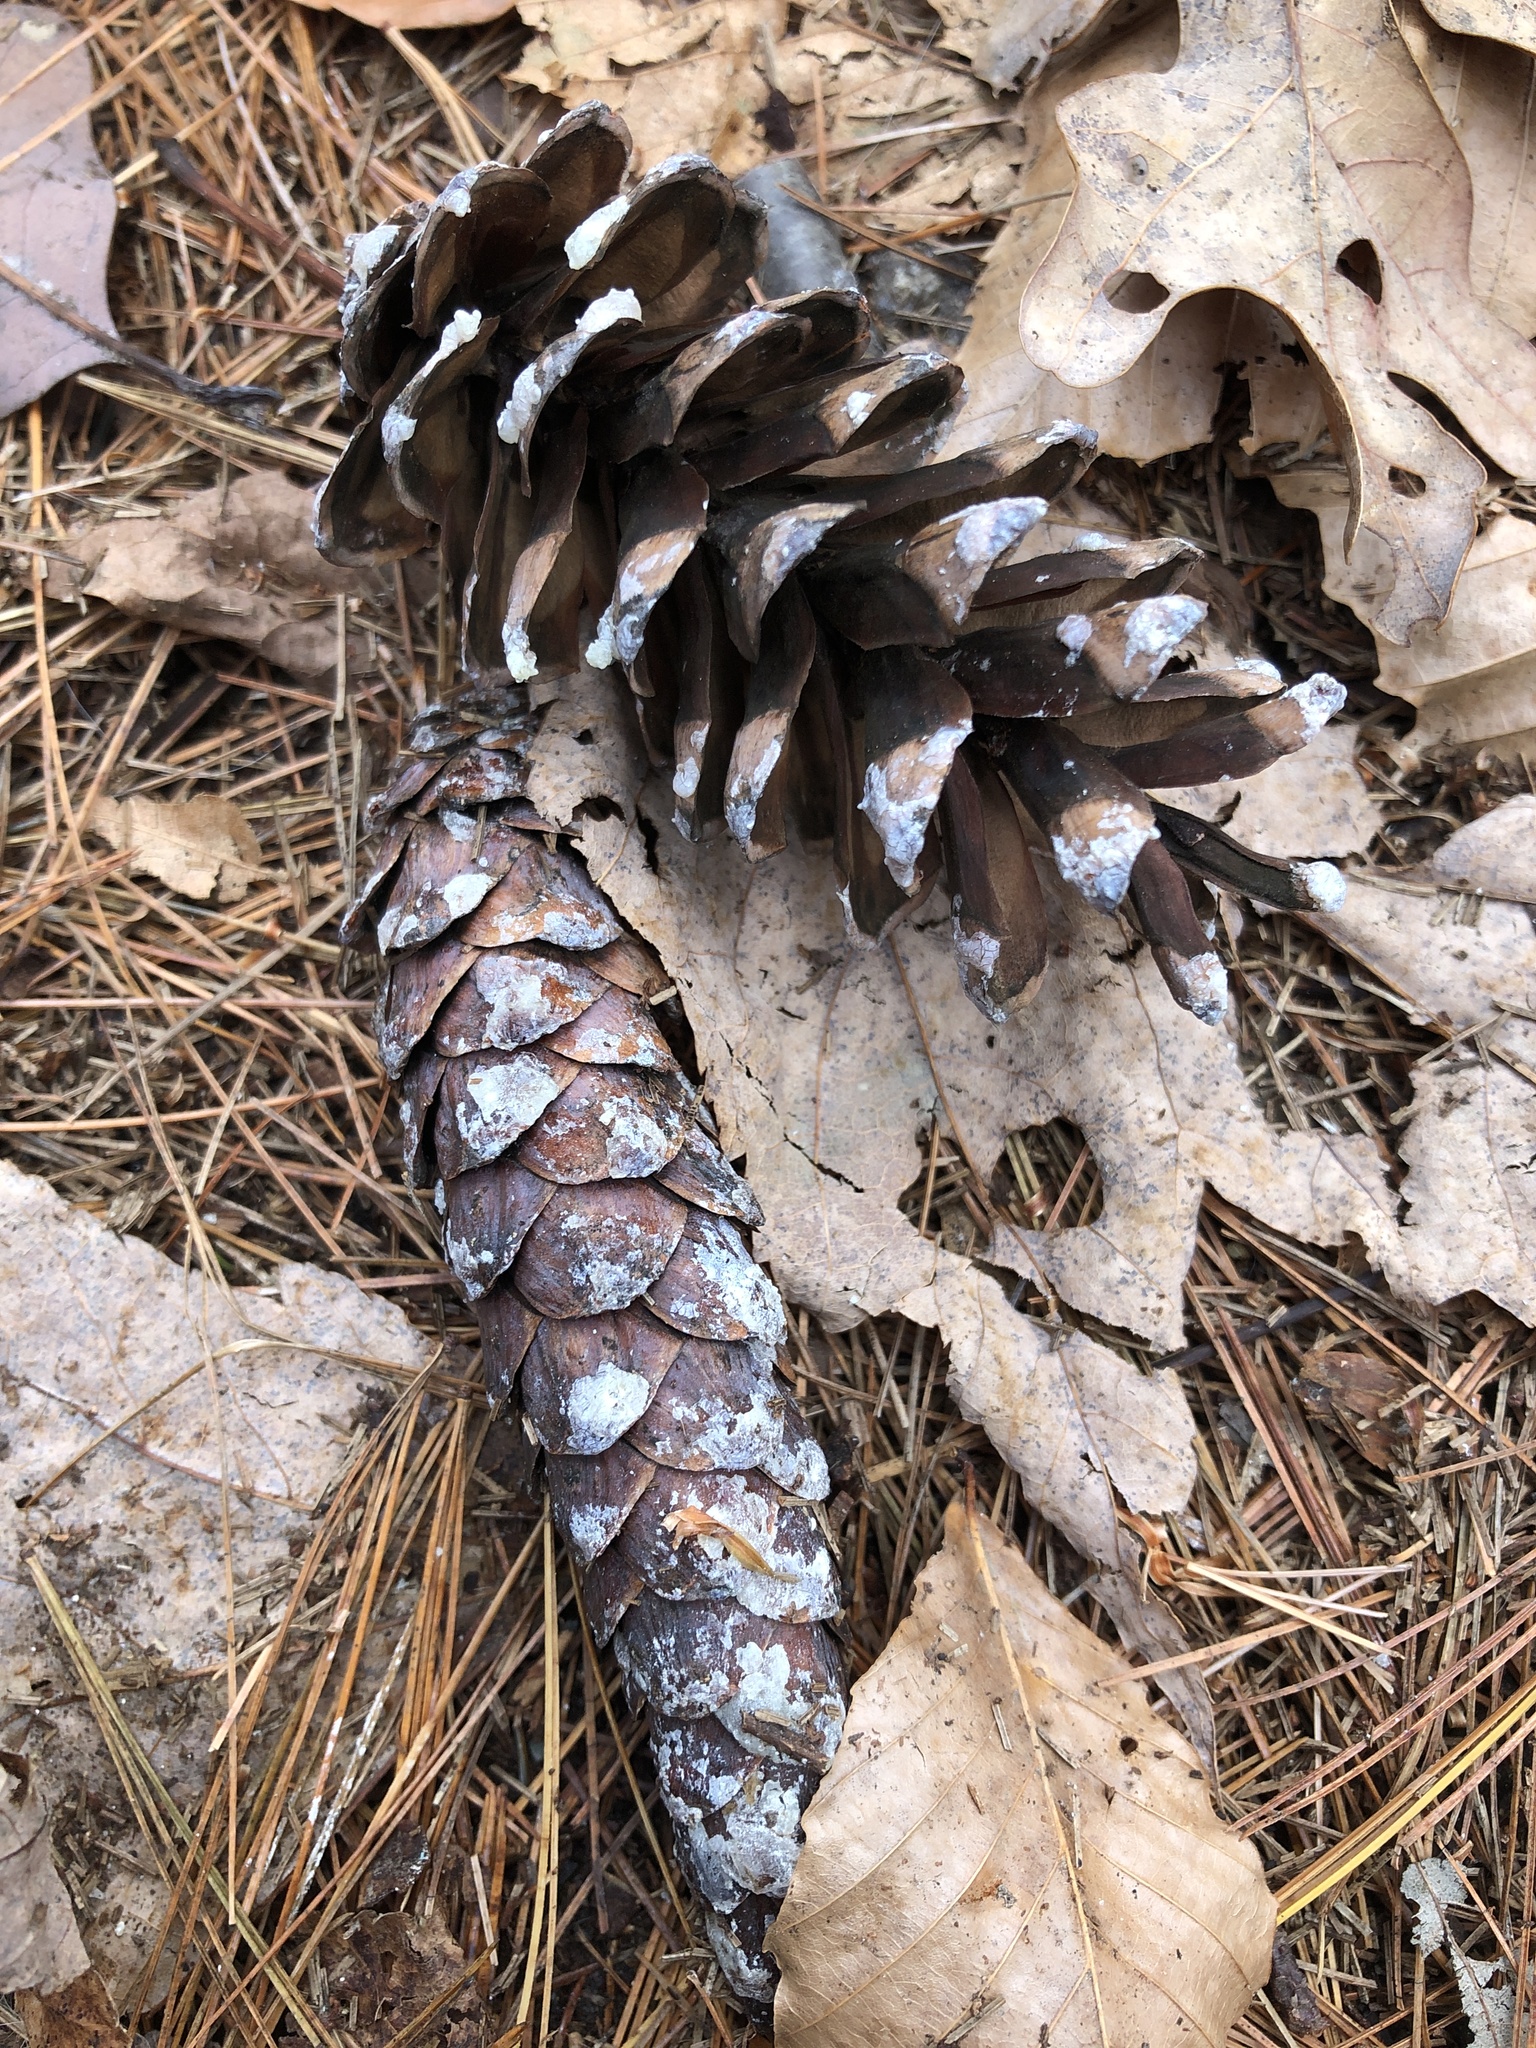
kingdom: Plantae
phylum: Tracheophyta
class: Pinopsida
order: Pinales
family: Pinaceae
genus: Pinus
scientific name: Pinus strobus
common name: Weymouth pine
